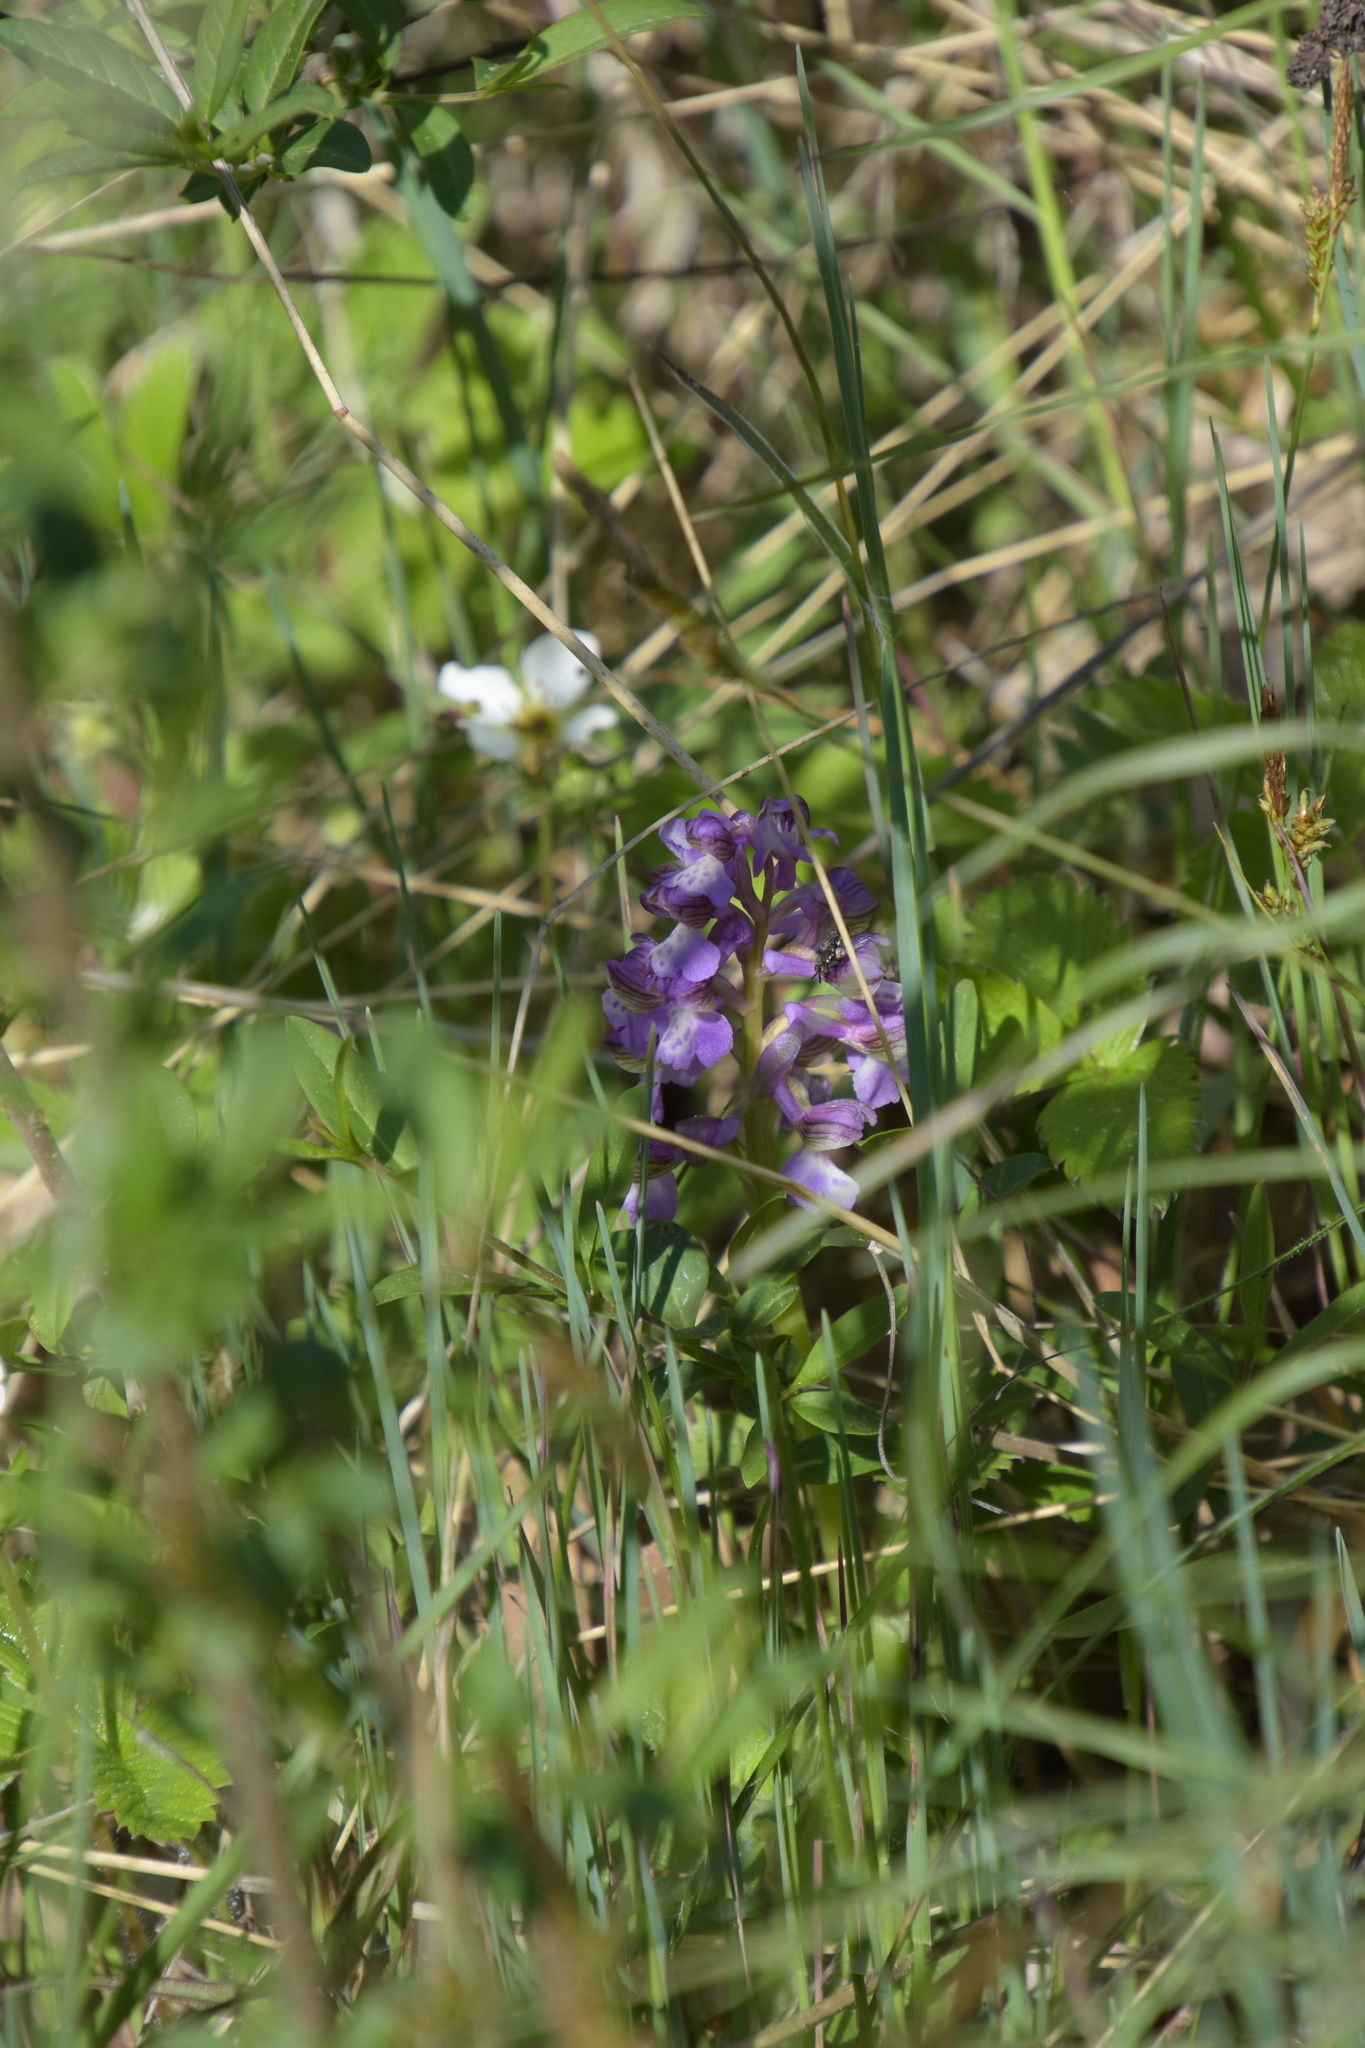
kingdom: Plantae
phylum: Tracheophyta
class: Liliopsida
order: Asparagales
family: Orchidaceae
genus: Anacamptis
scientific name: Anacamptis morio
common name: Green-winged orchid
